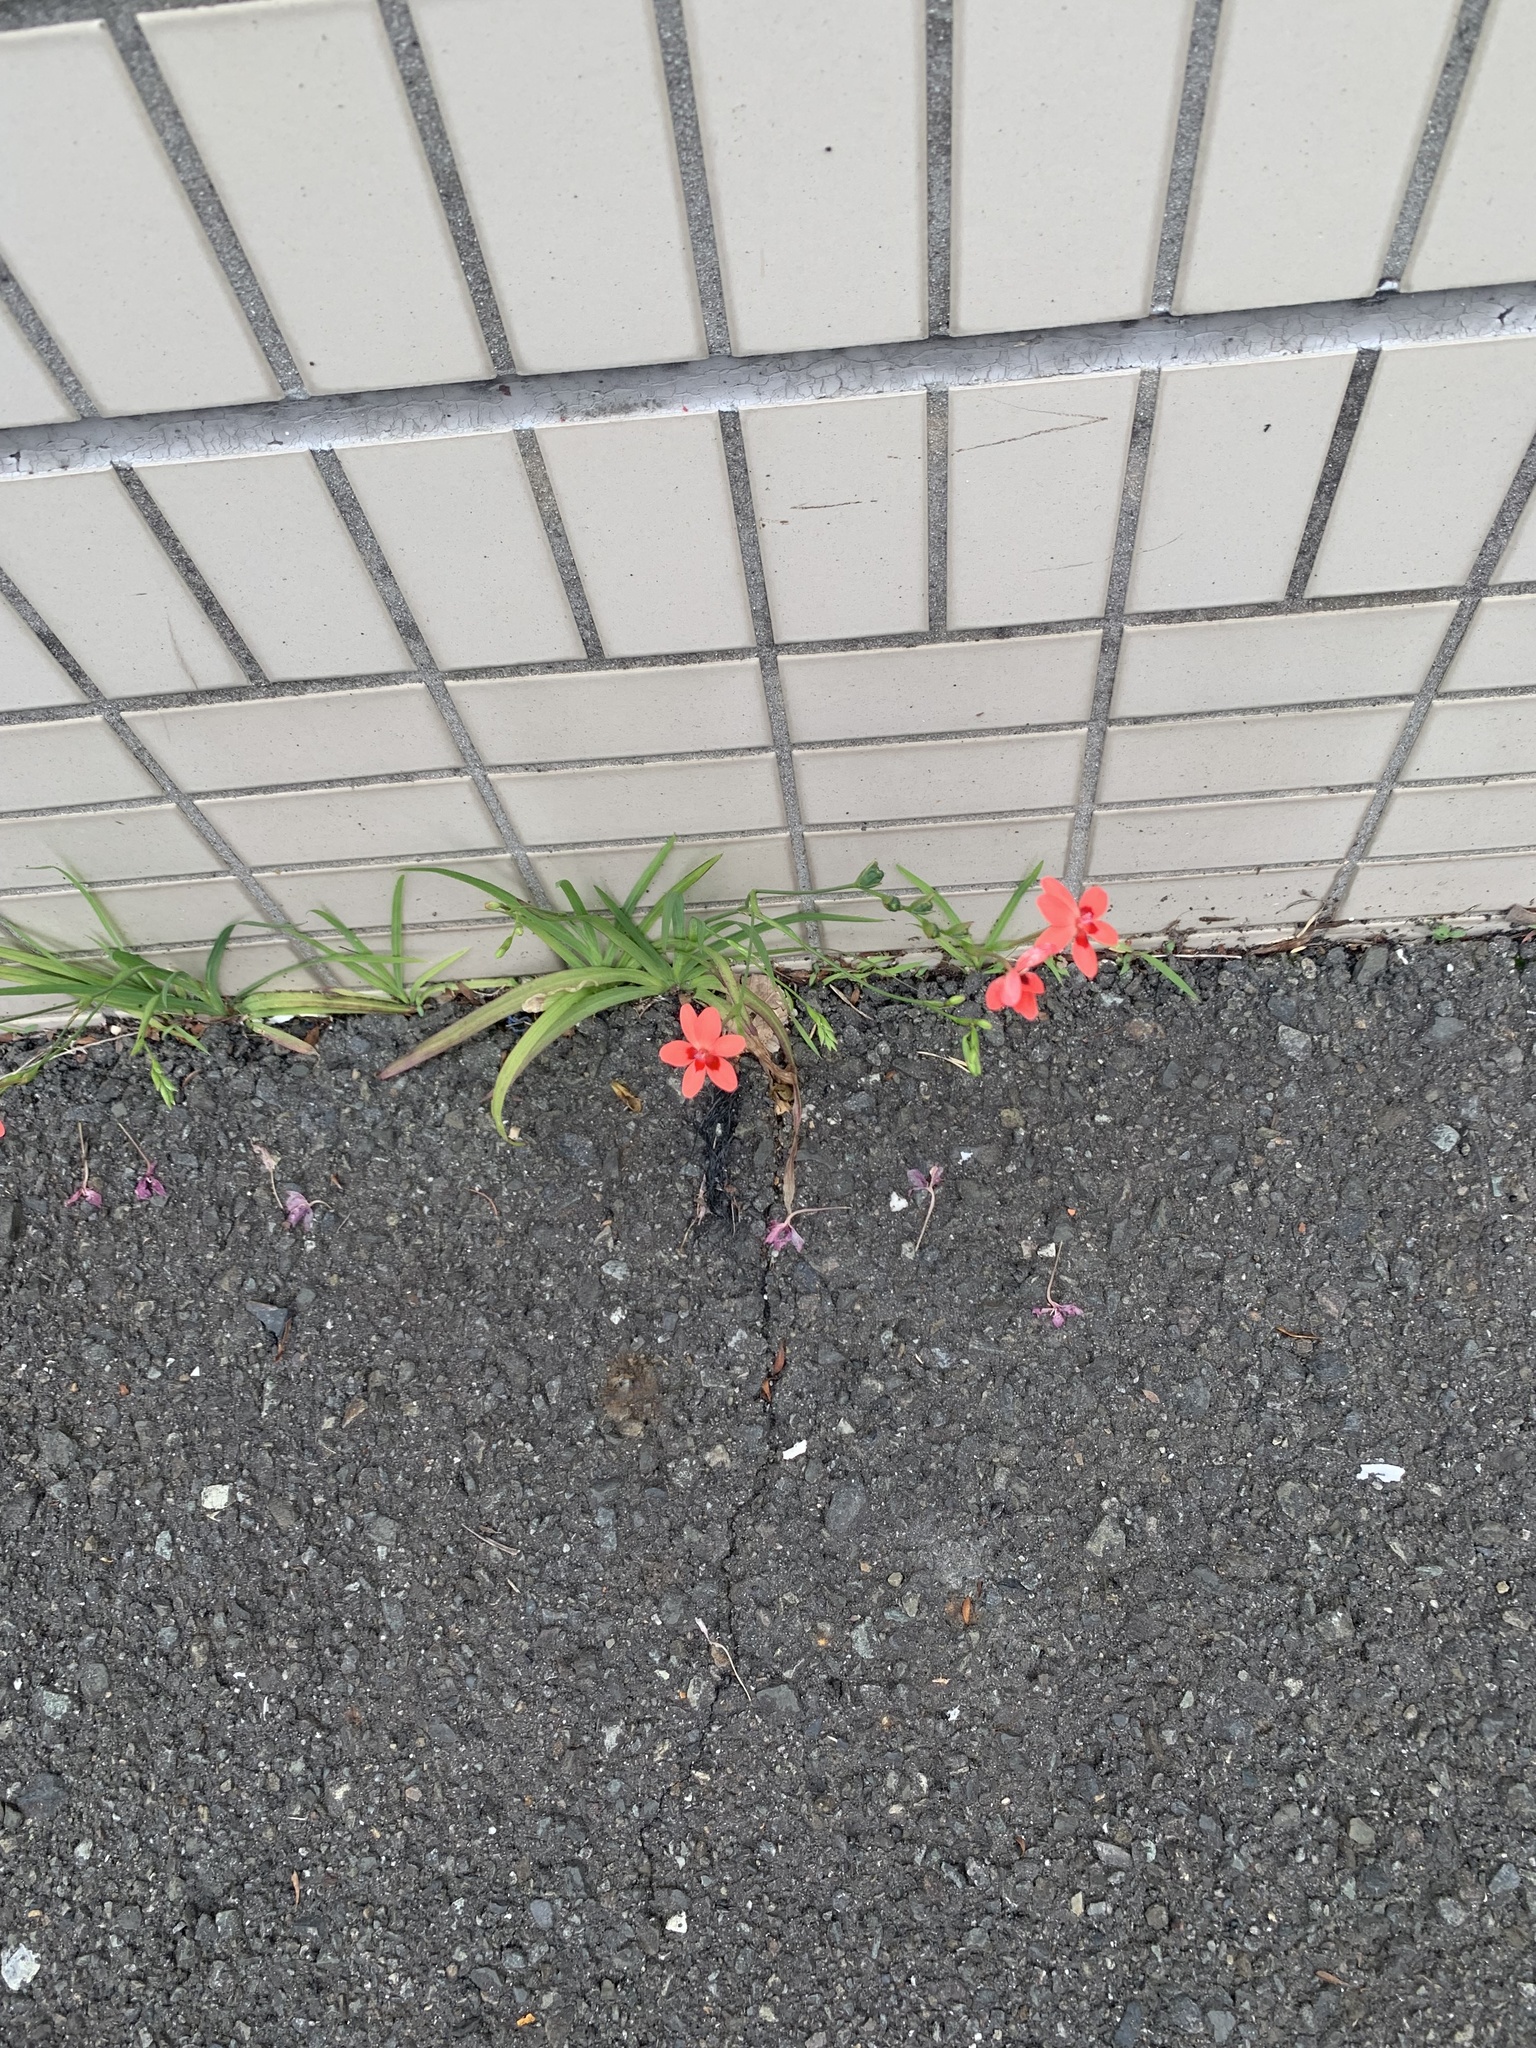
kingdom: Plantae
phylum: Tracheophyta
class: Liliopsida
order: Asparagales
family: Iridaceae
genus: Freesia
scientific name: Freesia laxa
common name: False freesia
